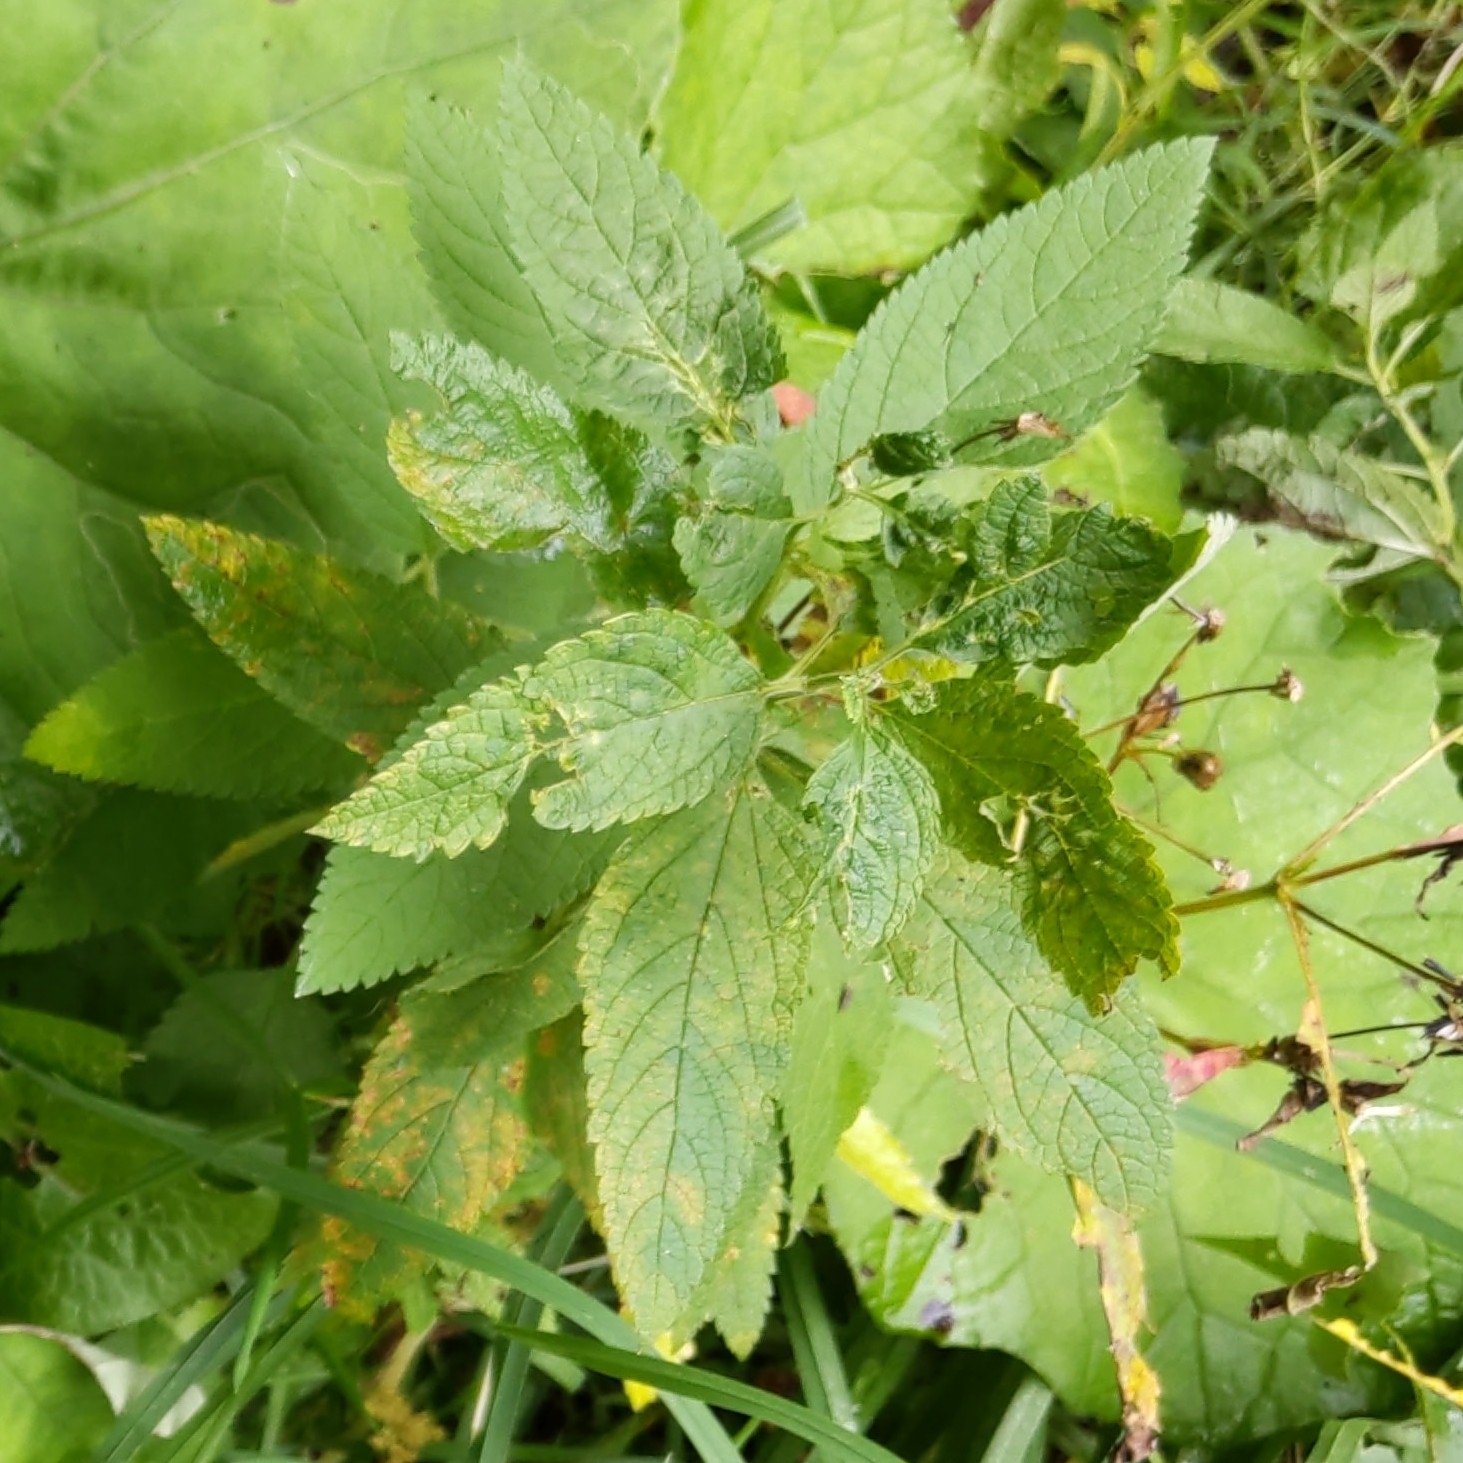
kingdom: Plantae
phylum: Tracheophyta
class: Magnoliopsida
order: Lamiales
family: Verbenaceae
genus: Verbena
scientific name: Verbena urticifolia
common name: Nettle-leaved vervain
